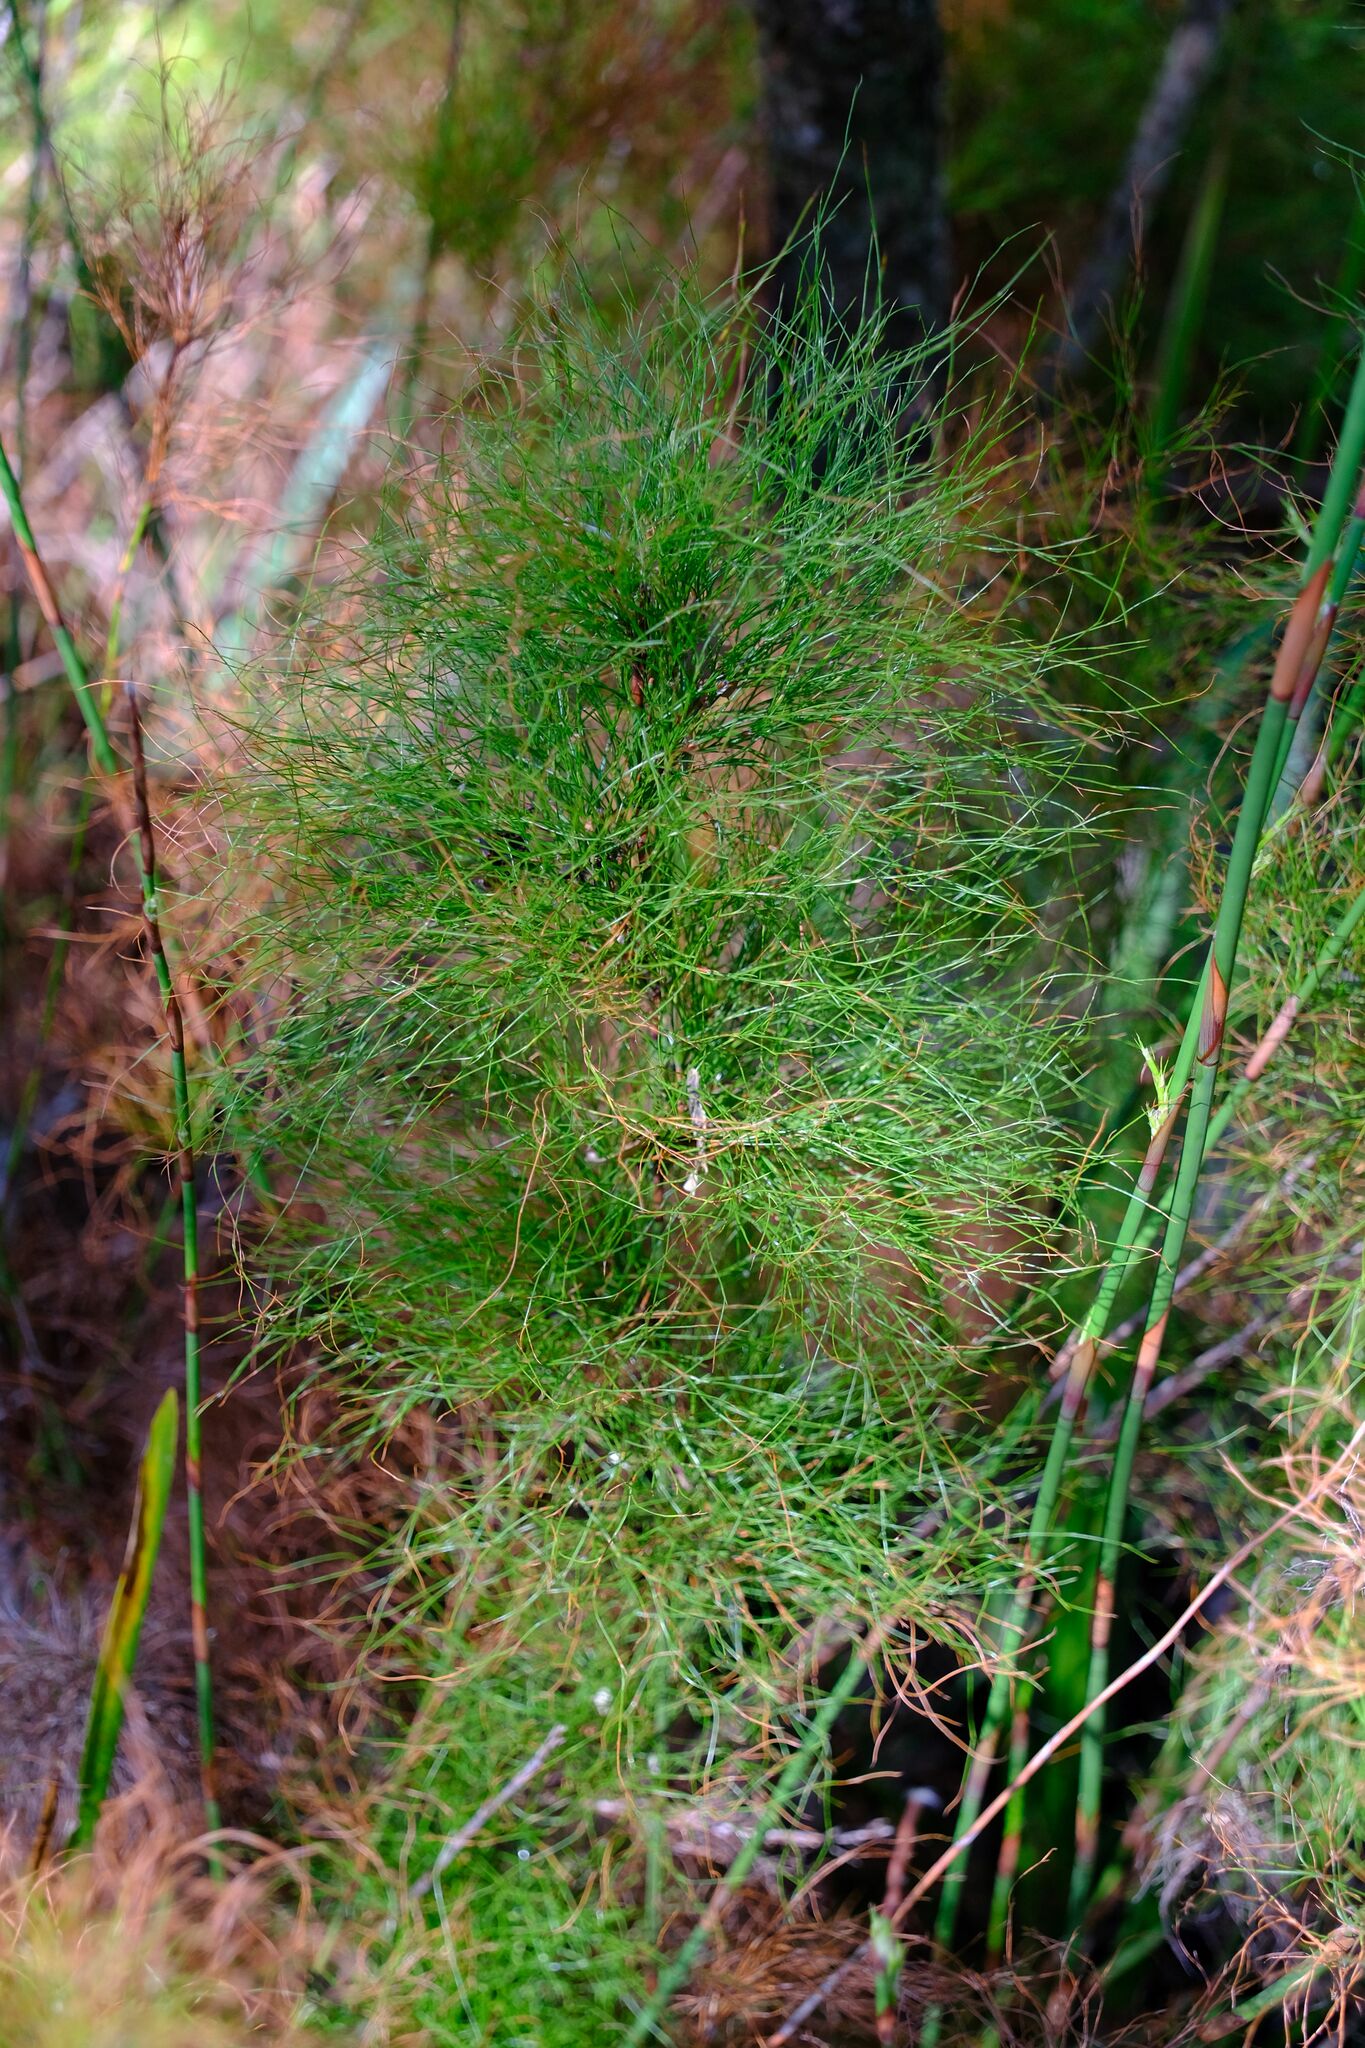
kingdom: Plantae
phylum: Tracheophyta
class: Liliopsida
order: Poales
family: Restionaceae
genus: Baloskion
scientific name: Baloskion tetraphyllum
